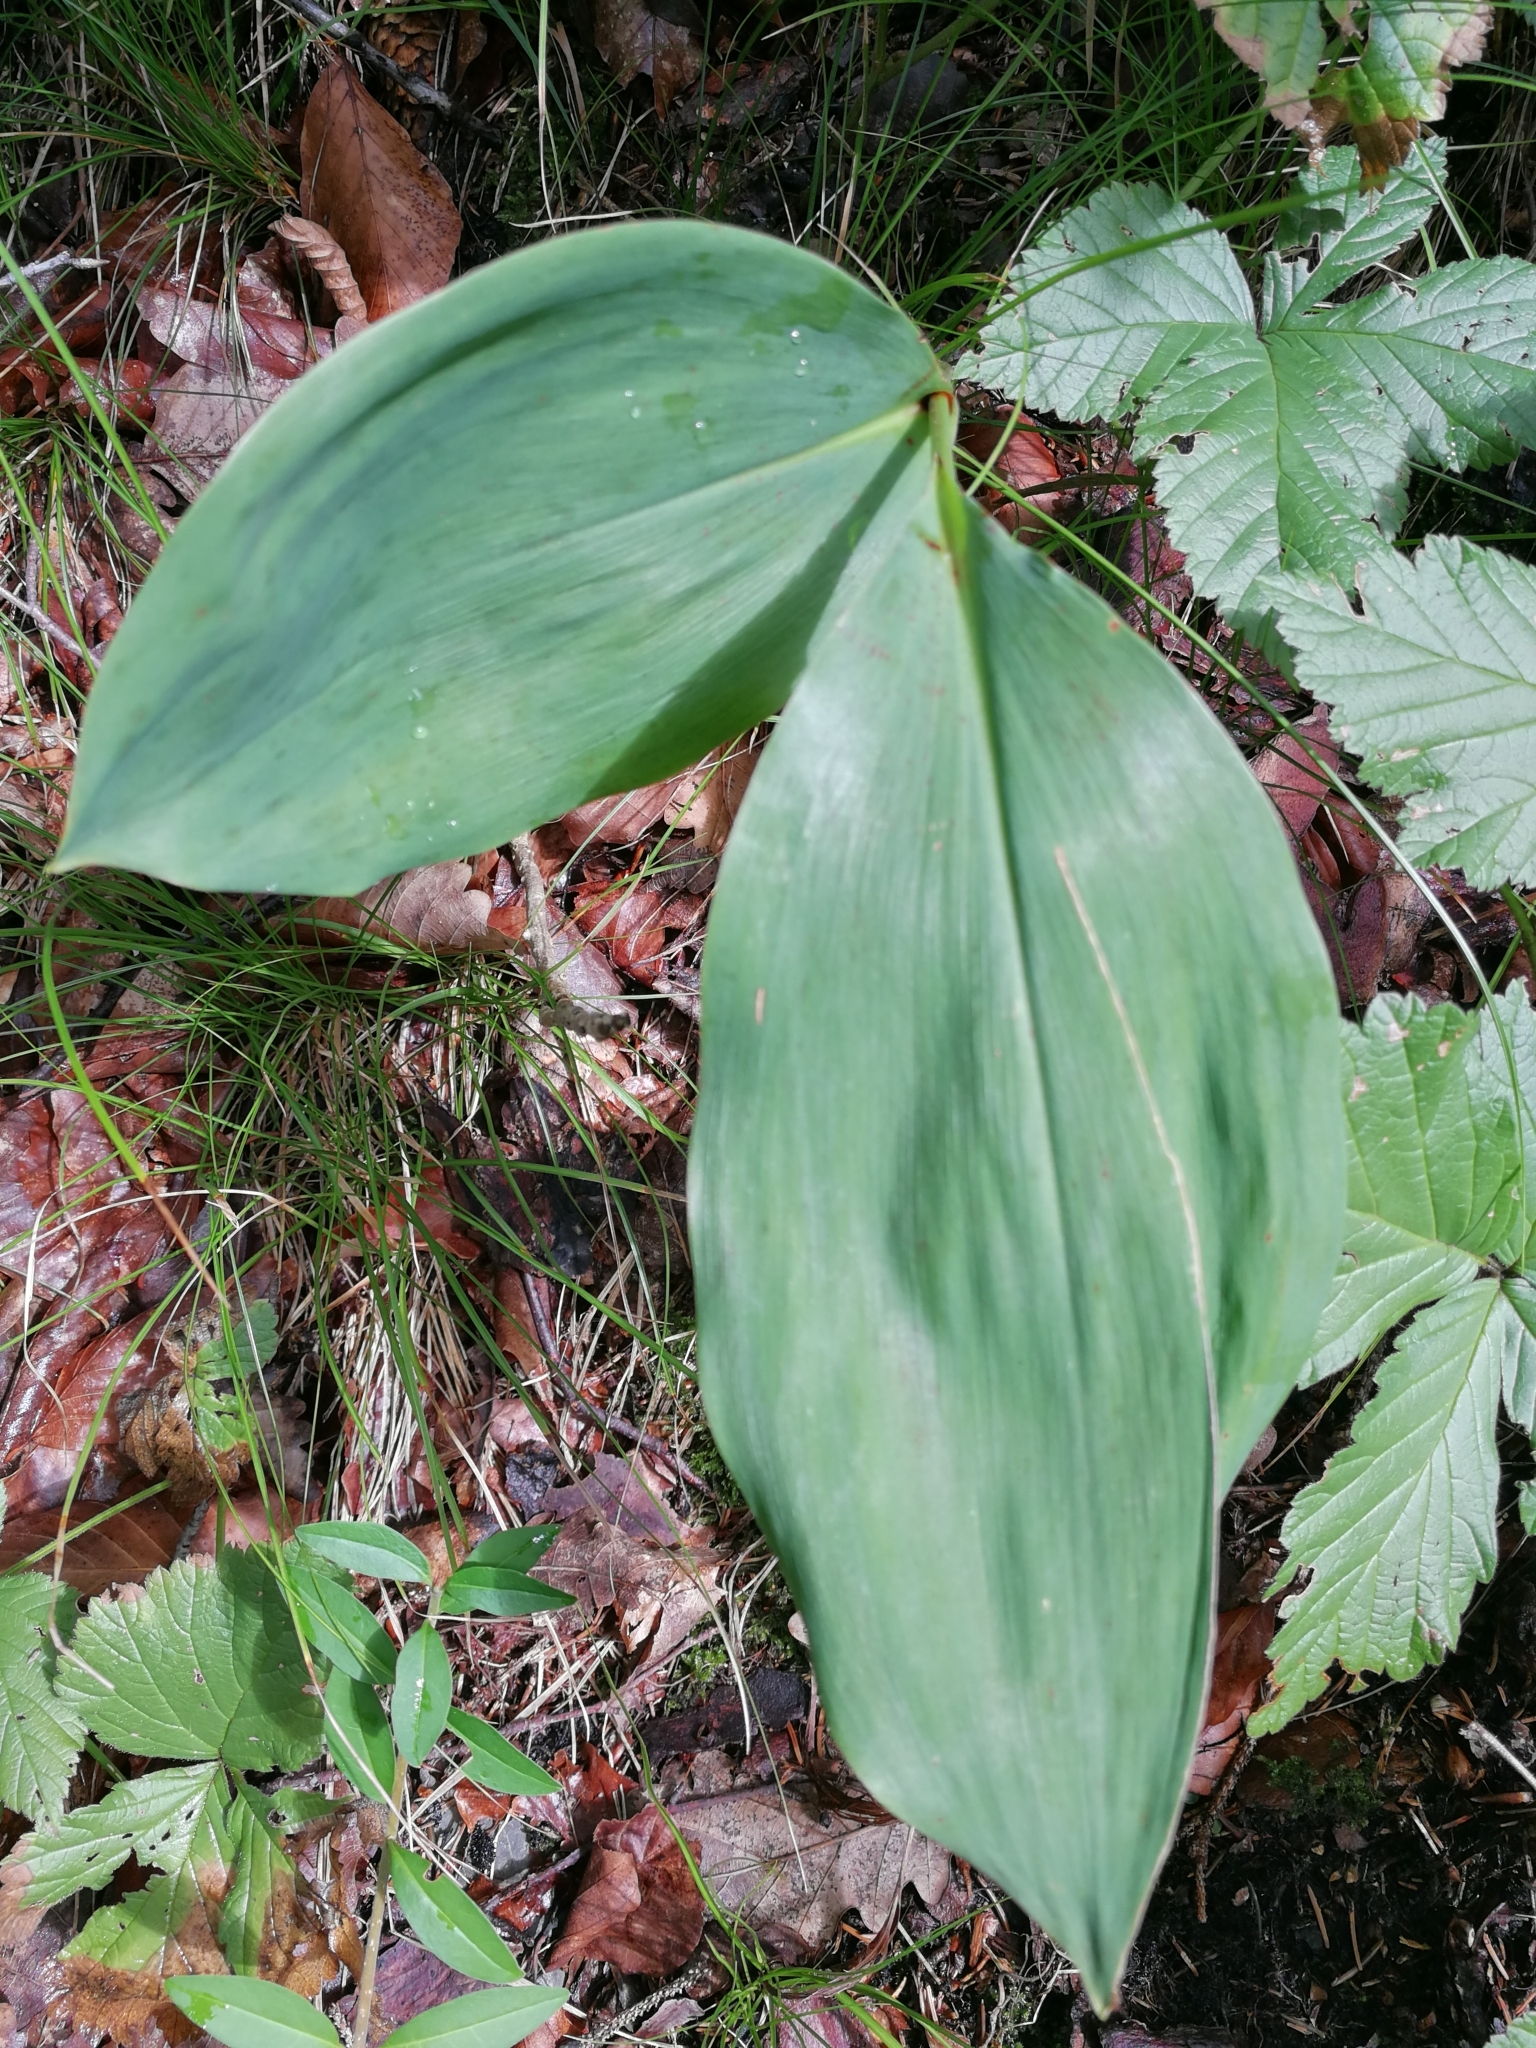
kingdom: Plantae
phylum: Tracheophyta
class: Liliopsida
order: Asparagales
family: Asparagaceae
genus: Convallaria
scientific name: Convallaria majalis
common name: Lily-of-the-valley
